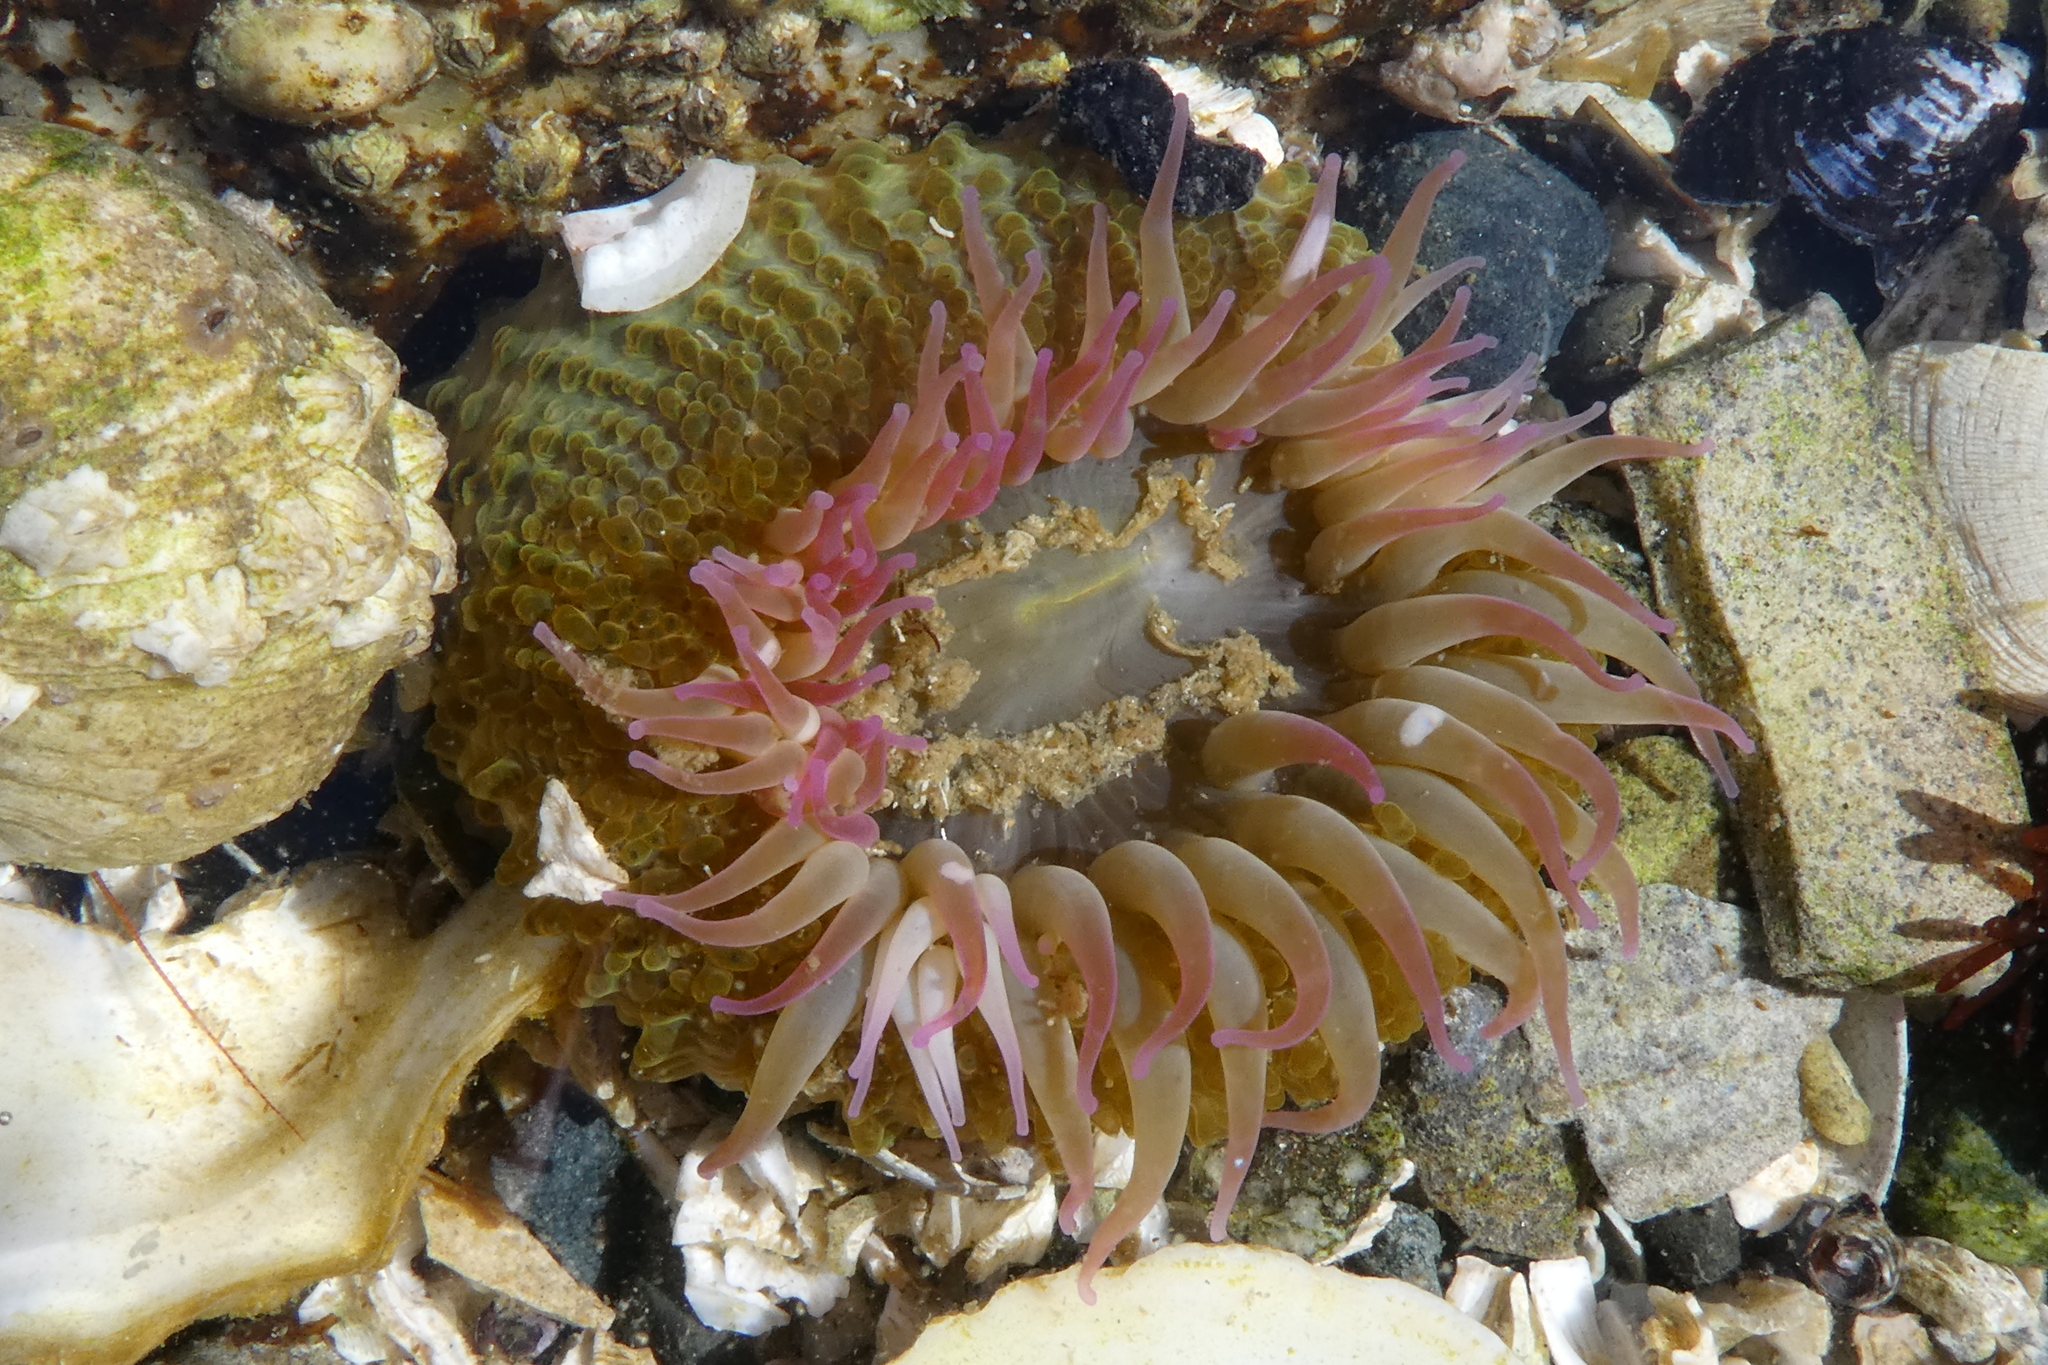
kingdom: Animalia
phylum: Cnidaria
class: Anthozoa
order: Actiniaria
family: Actiniidae
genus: Anthopleura
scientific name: Anthopleura elegantissima
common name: Clonal anemone
